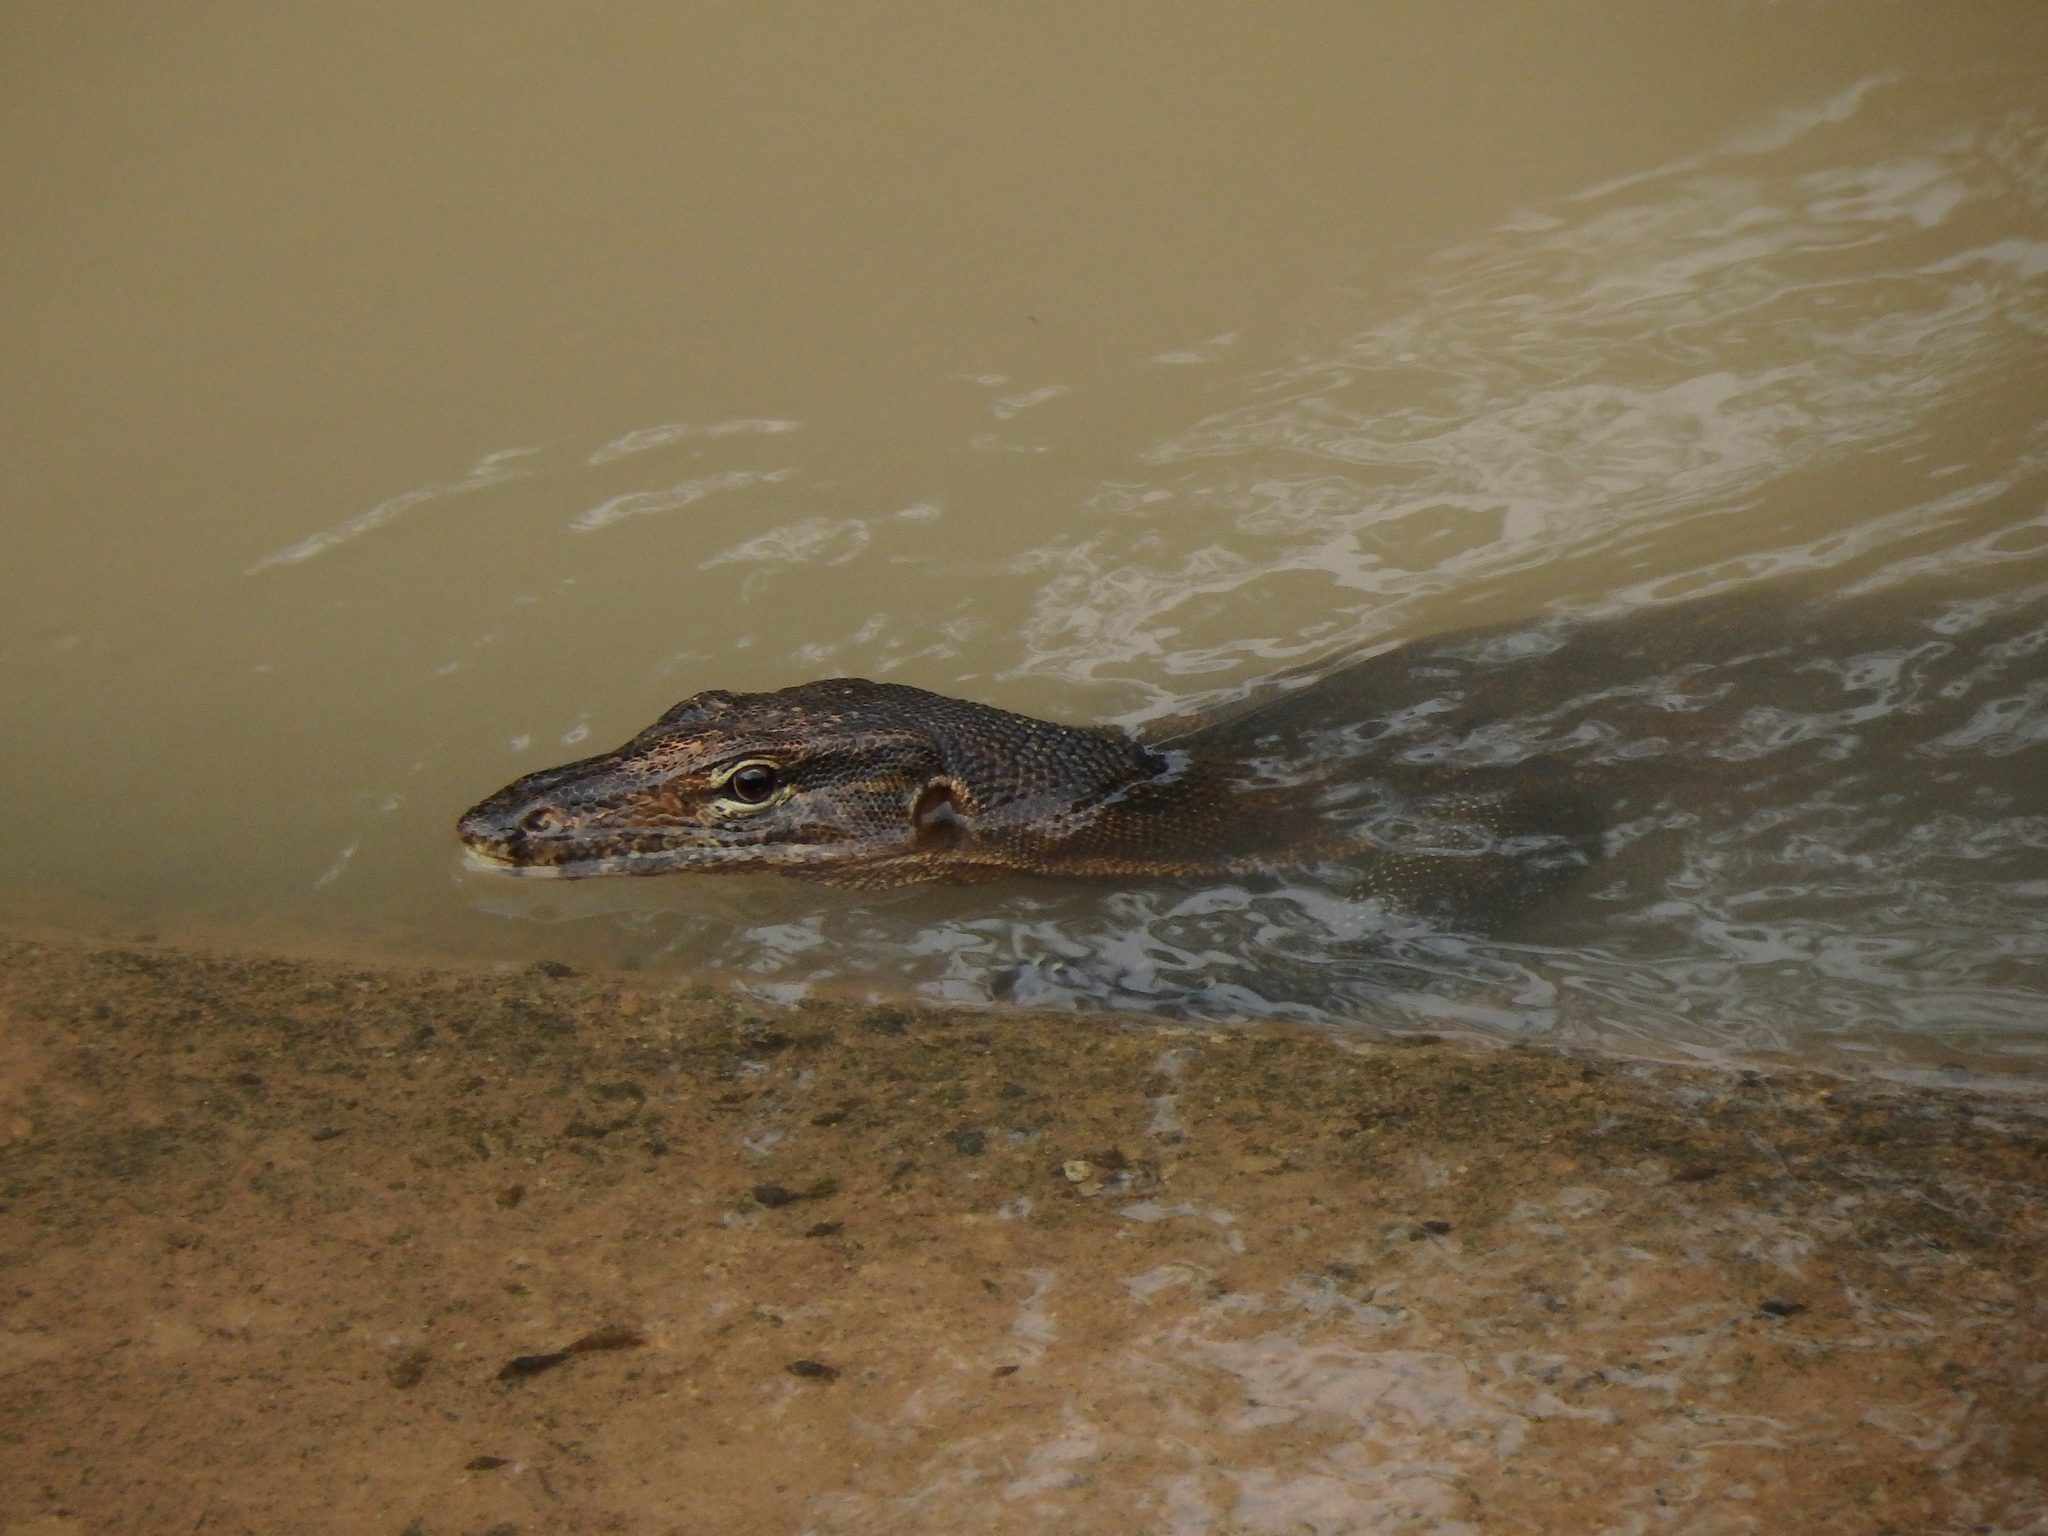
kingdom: Animalia
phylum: Chordata
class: Squamata
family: Varanidae
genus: Varanus
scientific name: Varanus salvator
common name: Common water monitor
